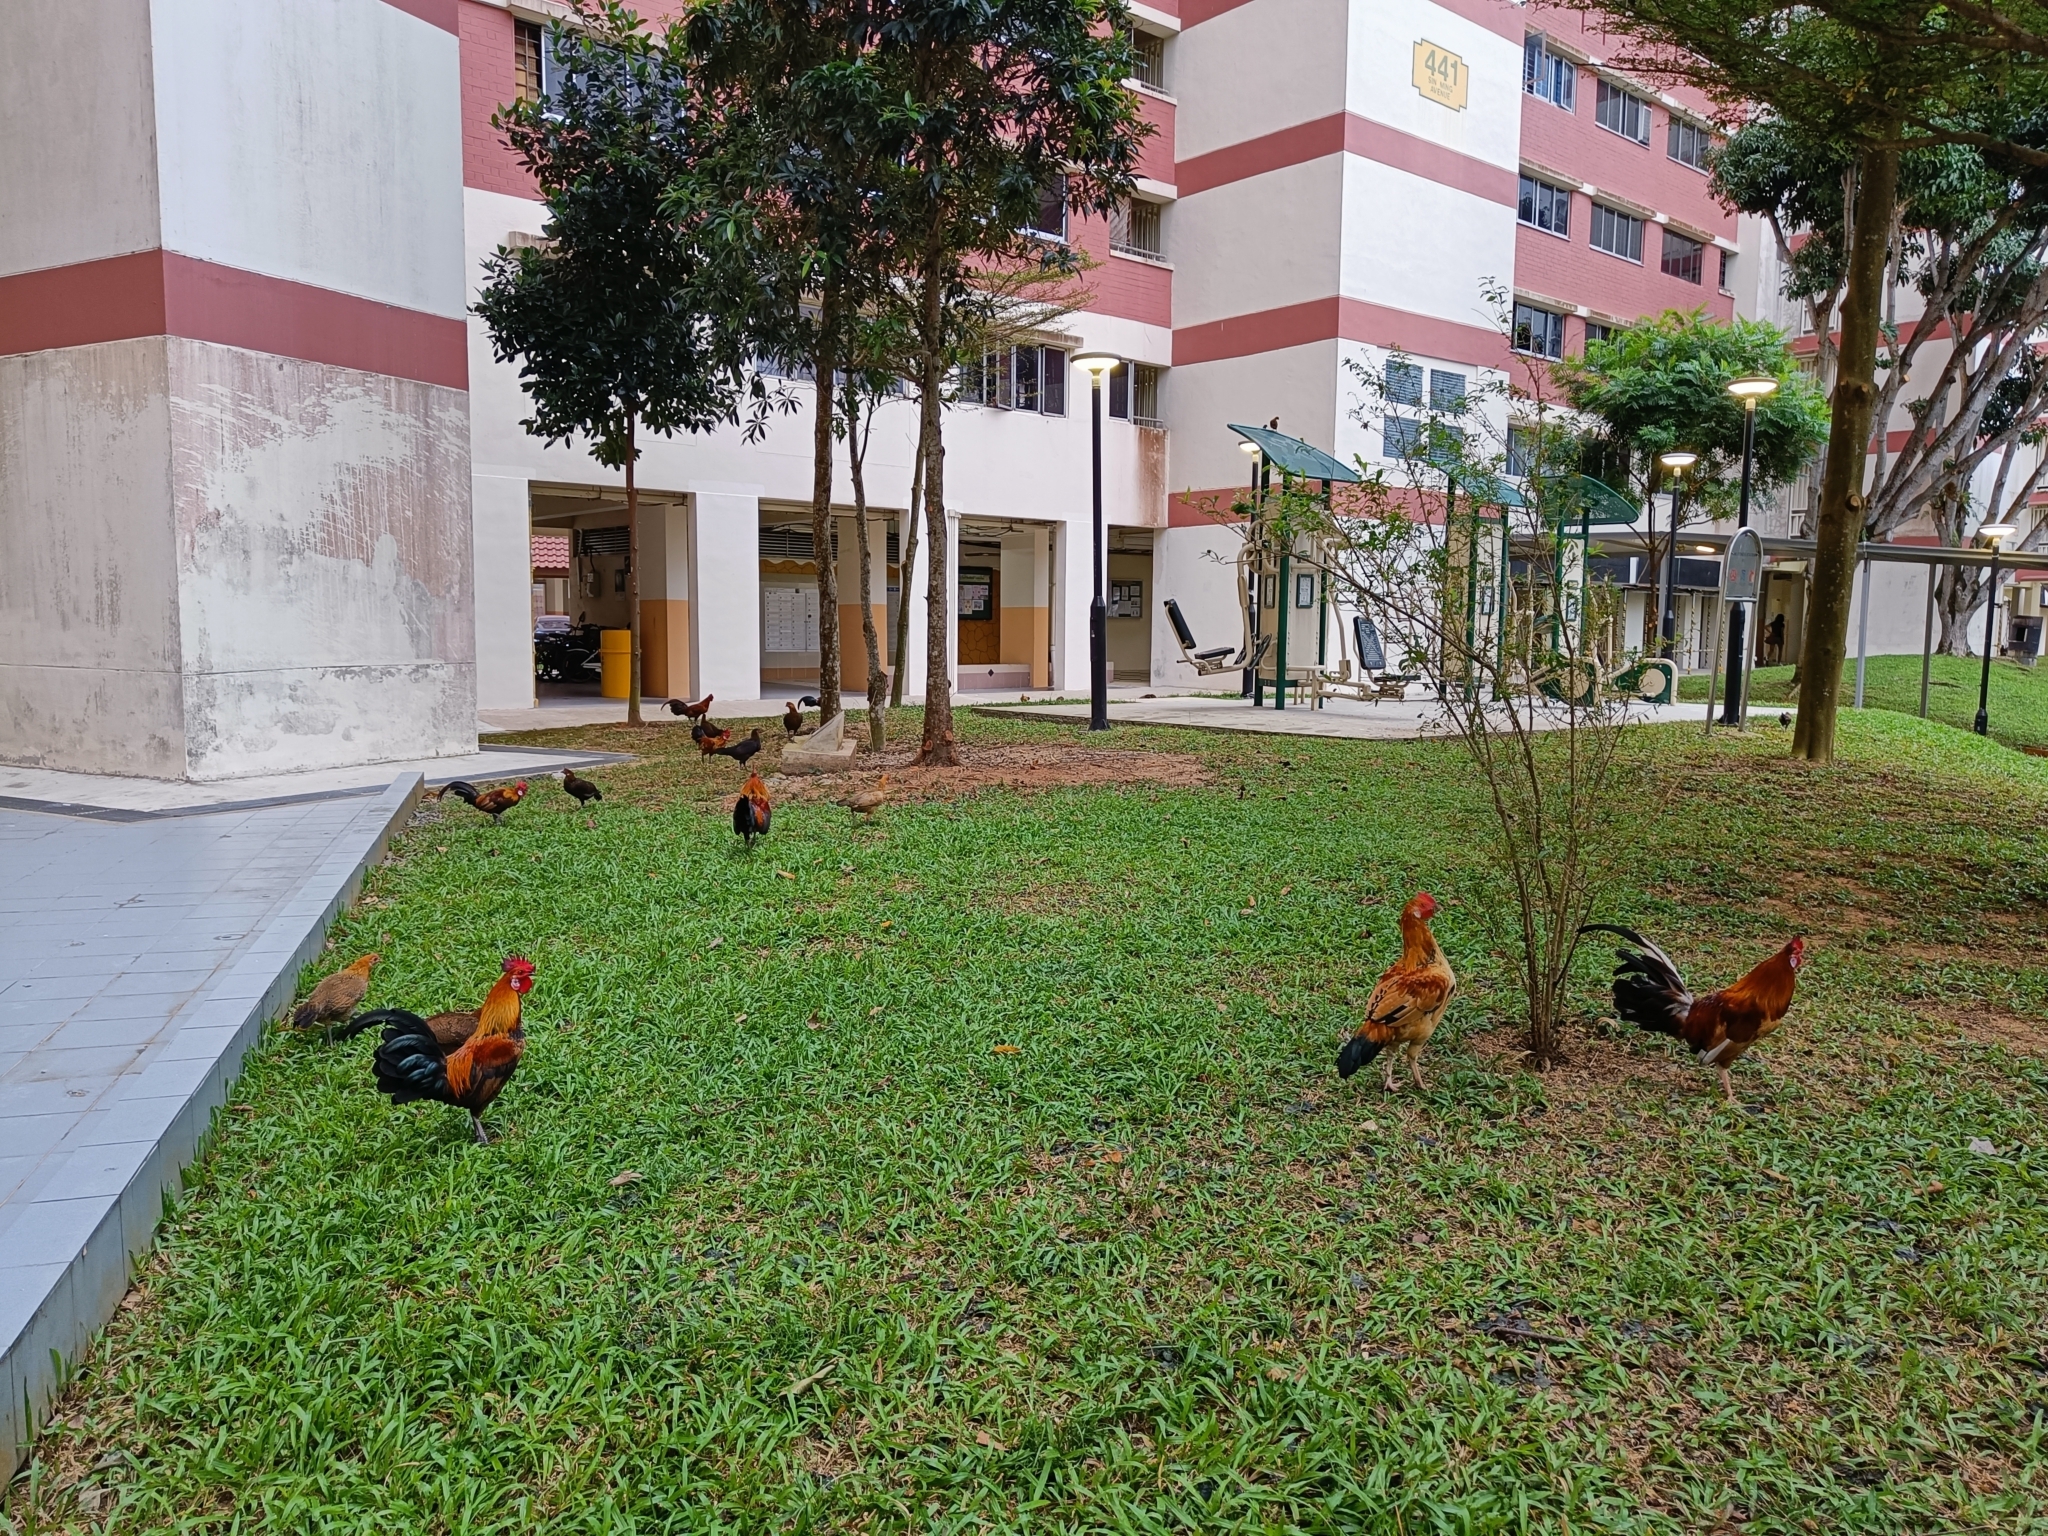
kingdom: Animalia
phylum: Chordata
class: Aves
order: Galliformes
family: Phasianidae
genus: Gallus
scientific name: Gallus gallus
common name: Red junglefowl
